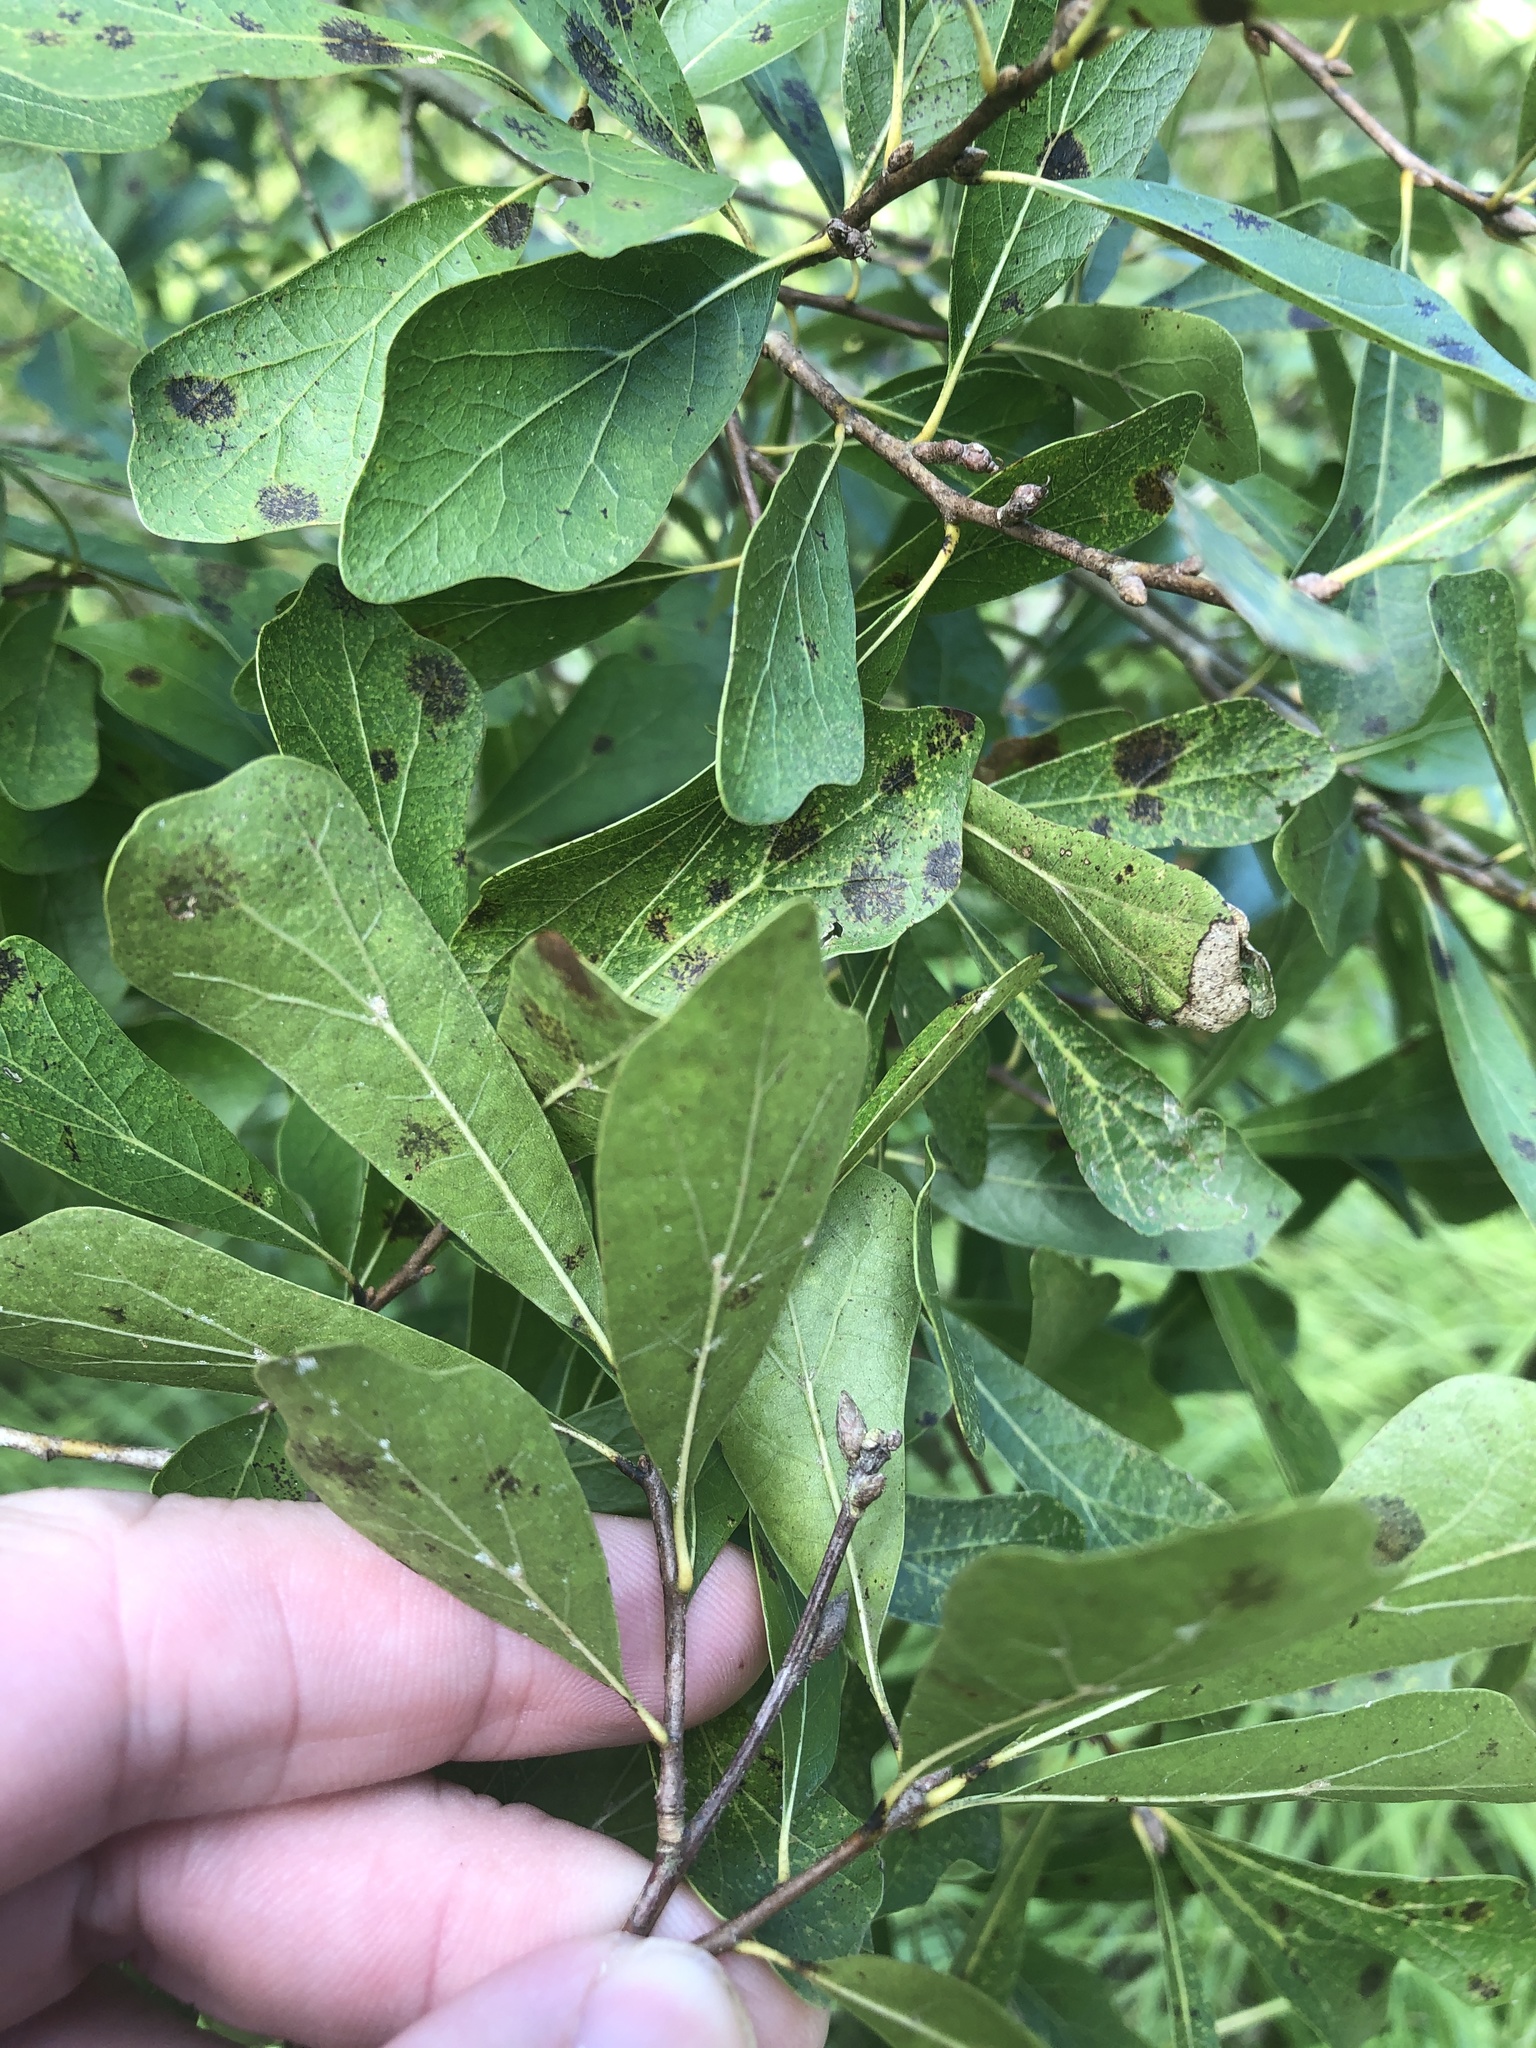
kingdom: Plantae
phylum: Tracheophyta
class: Magnoliopsida
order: Fagales
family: Fagaceae
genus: Quercus
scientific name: Quercus nigra
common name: Water oak
